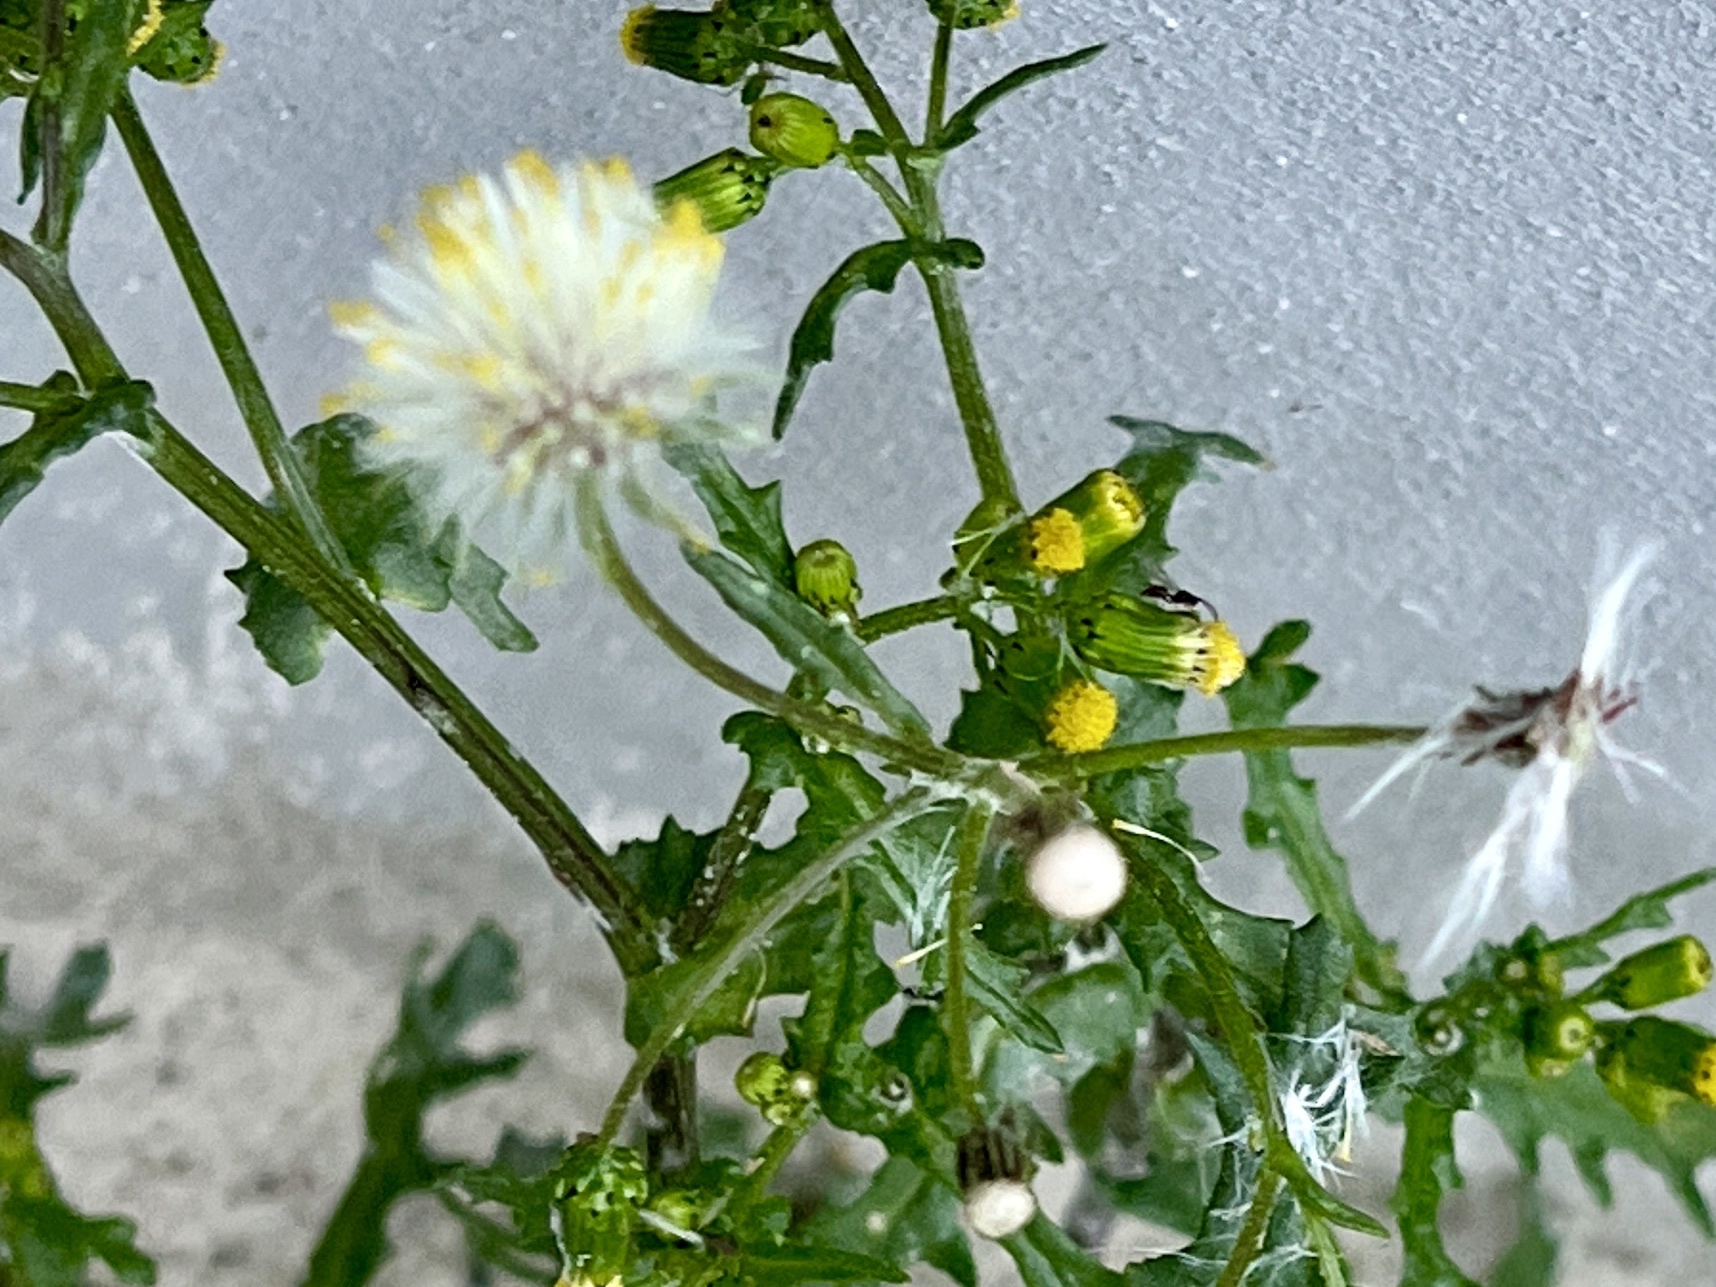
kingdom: Plantae
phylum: Tracheophyta
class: Magnoliopsida
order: Asterales
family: Asteraceae
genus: Senecio
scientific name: Senecio vulgaris
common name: Old-man-in-the-spring
